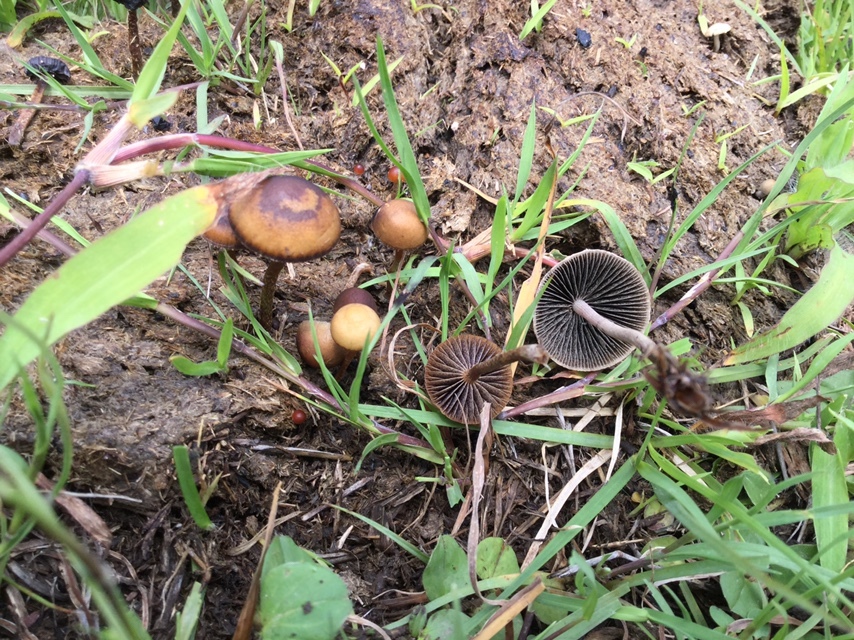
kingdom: Fungi
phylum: Basidiomycota
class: Agaricomycetes
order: Agaricales
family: Strophariaceae
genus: Deconica
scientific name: Deconica coprophila
